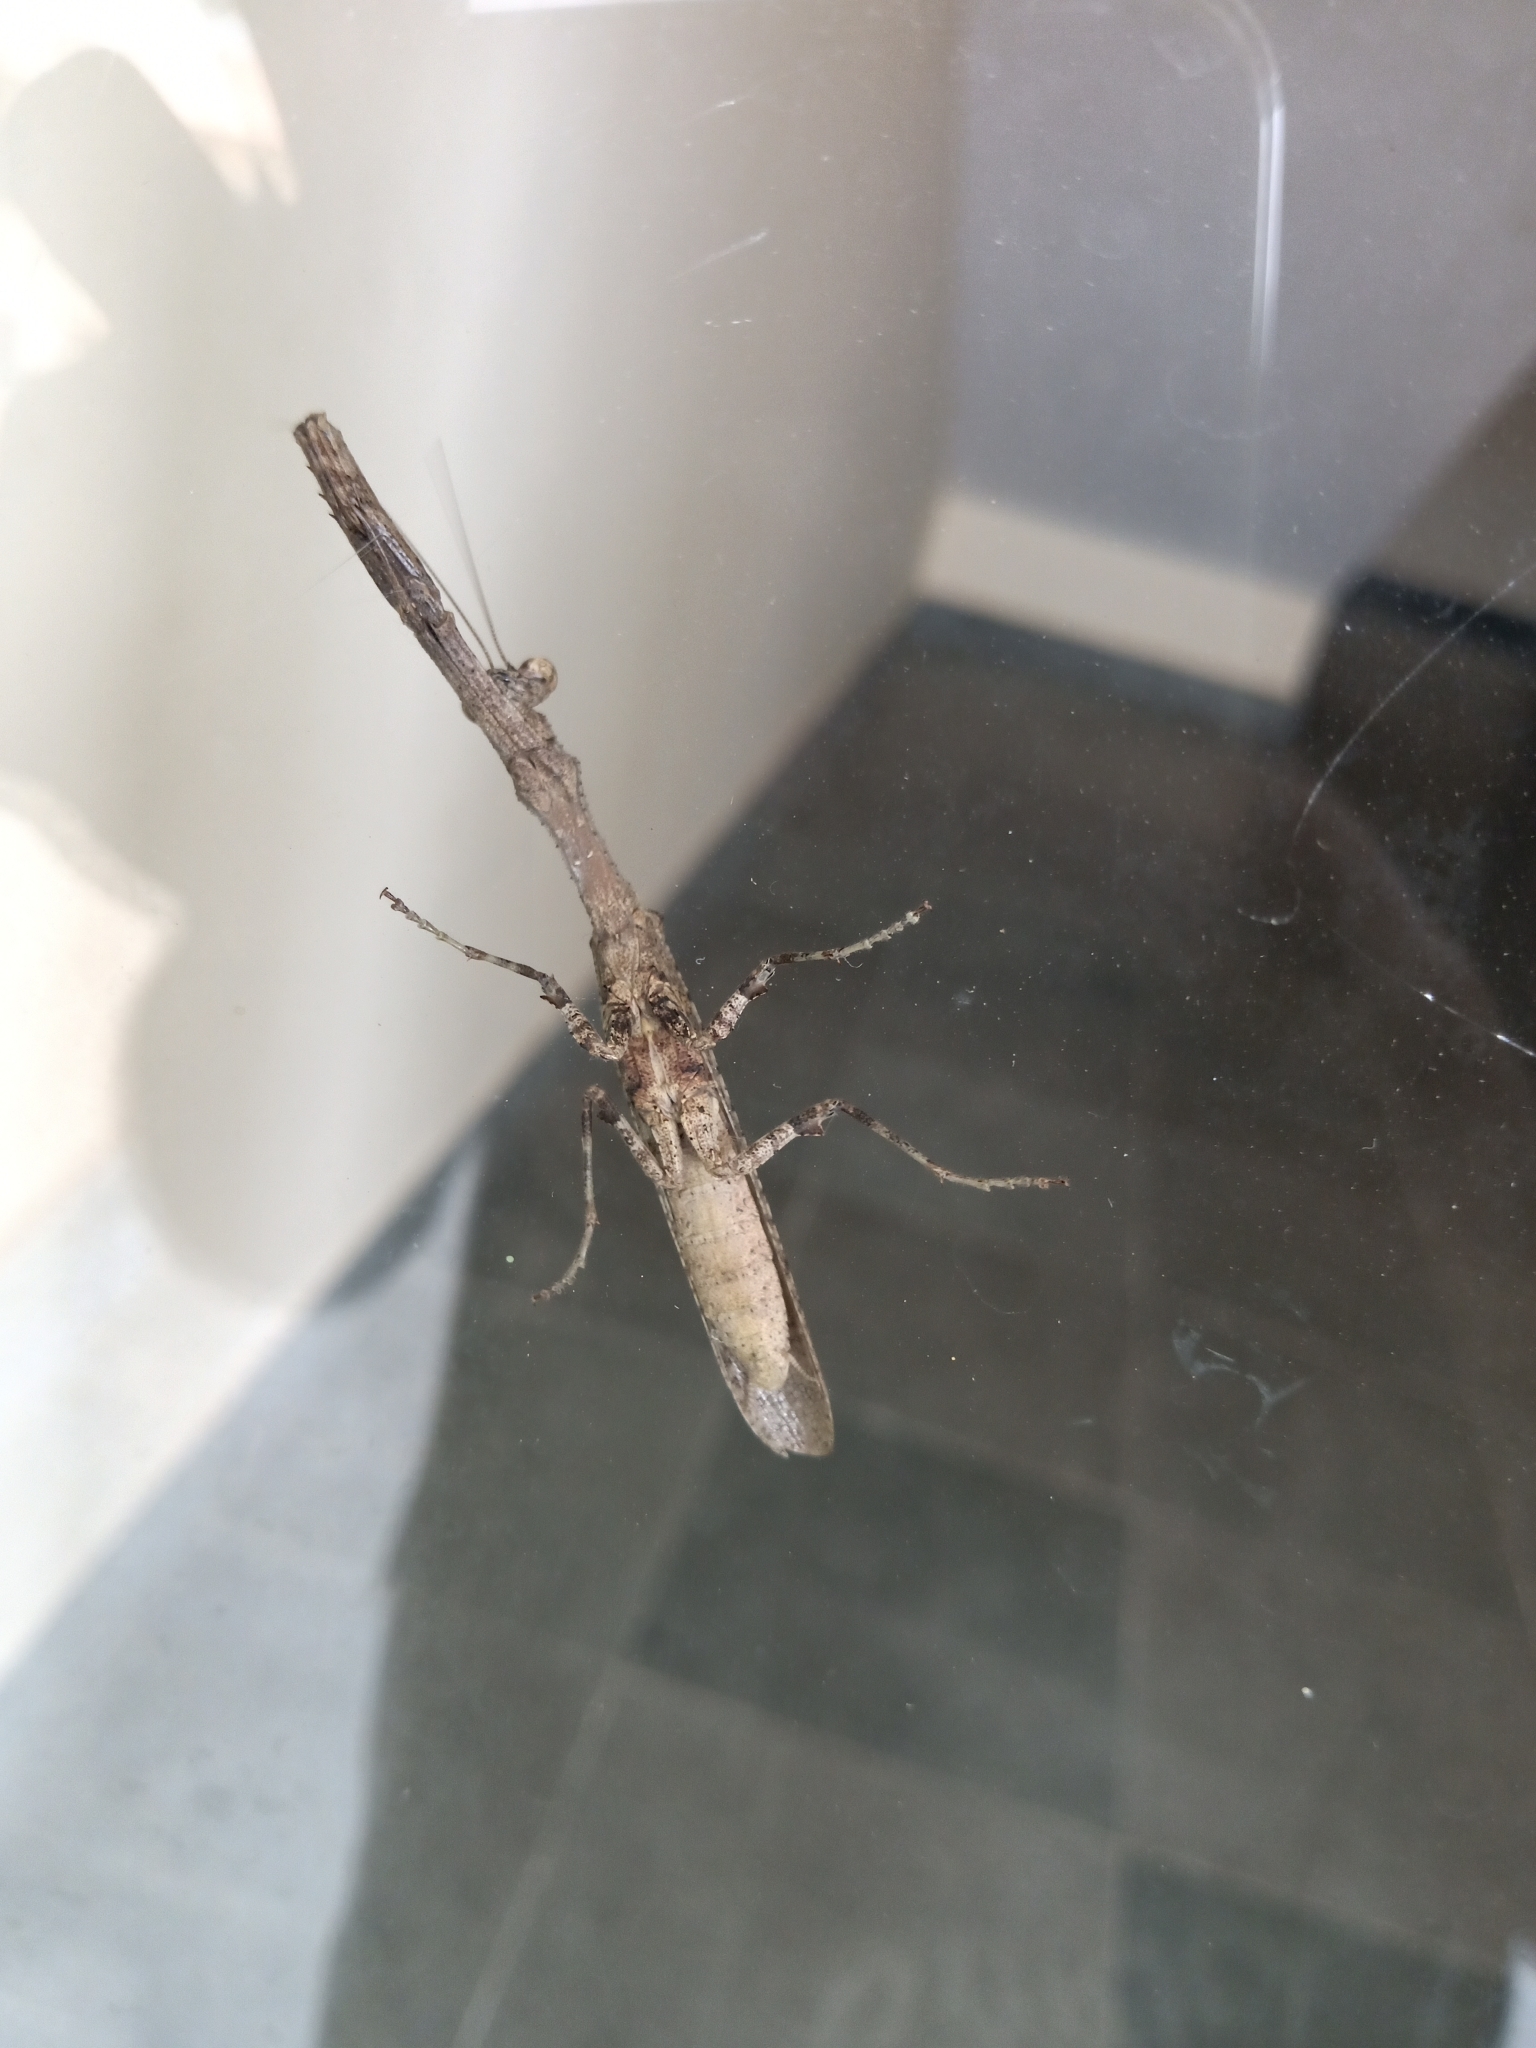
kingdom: Animalia
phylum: Arthropoda
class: Insecta
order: Mantodea
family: Hymenopodidae
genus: Ambivia
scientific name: Ambivia popa
